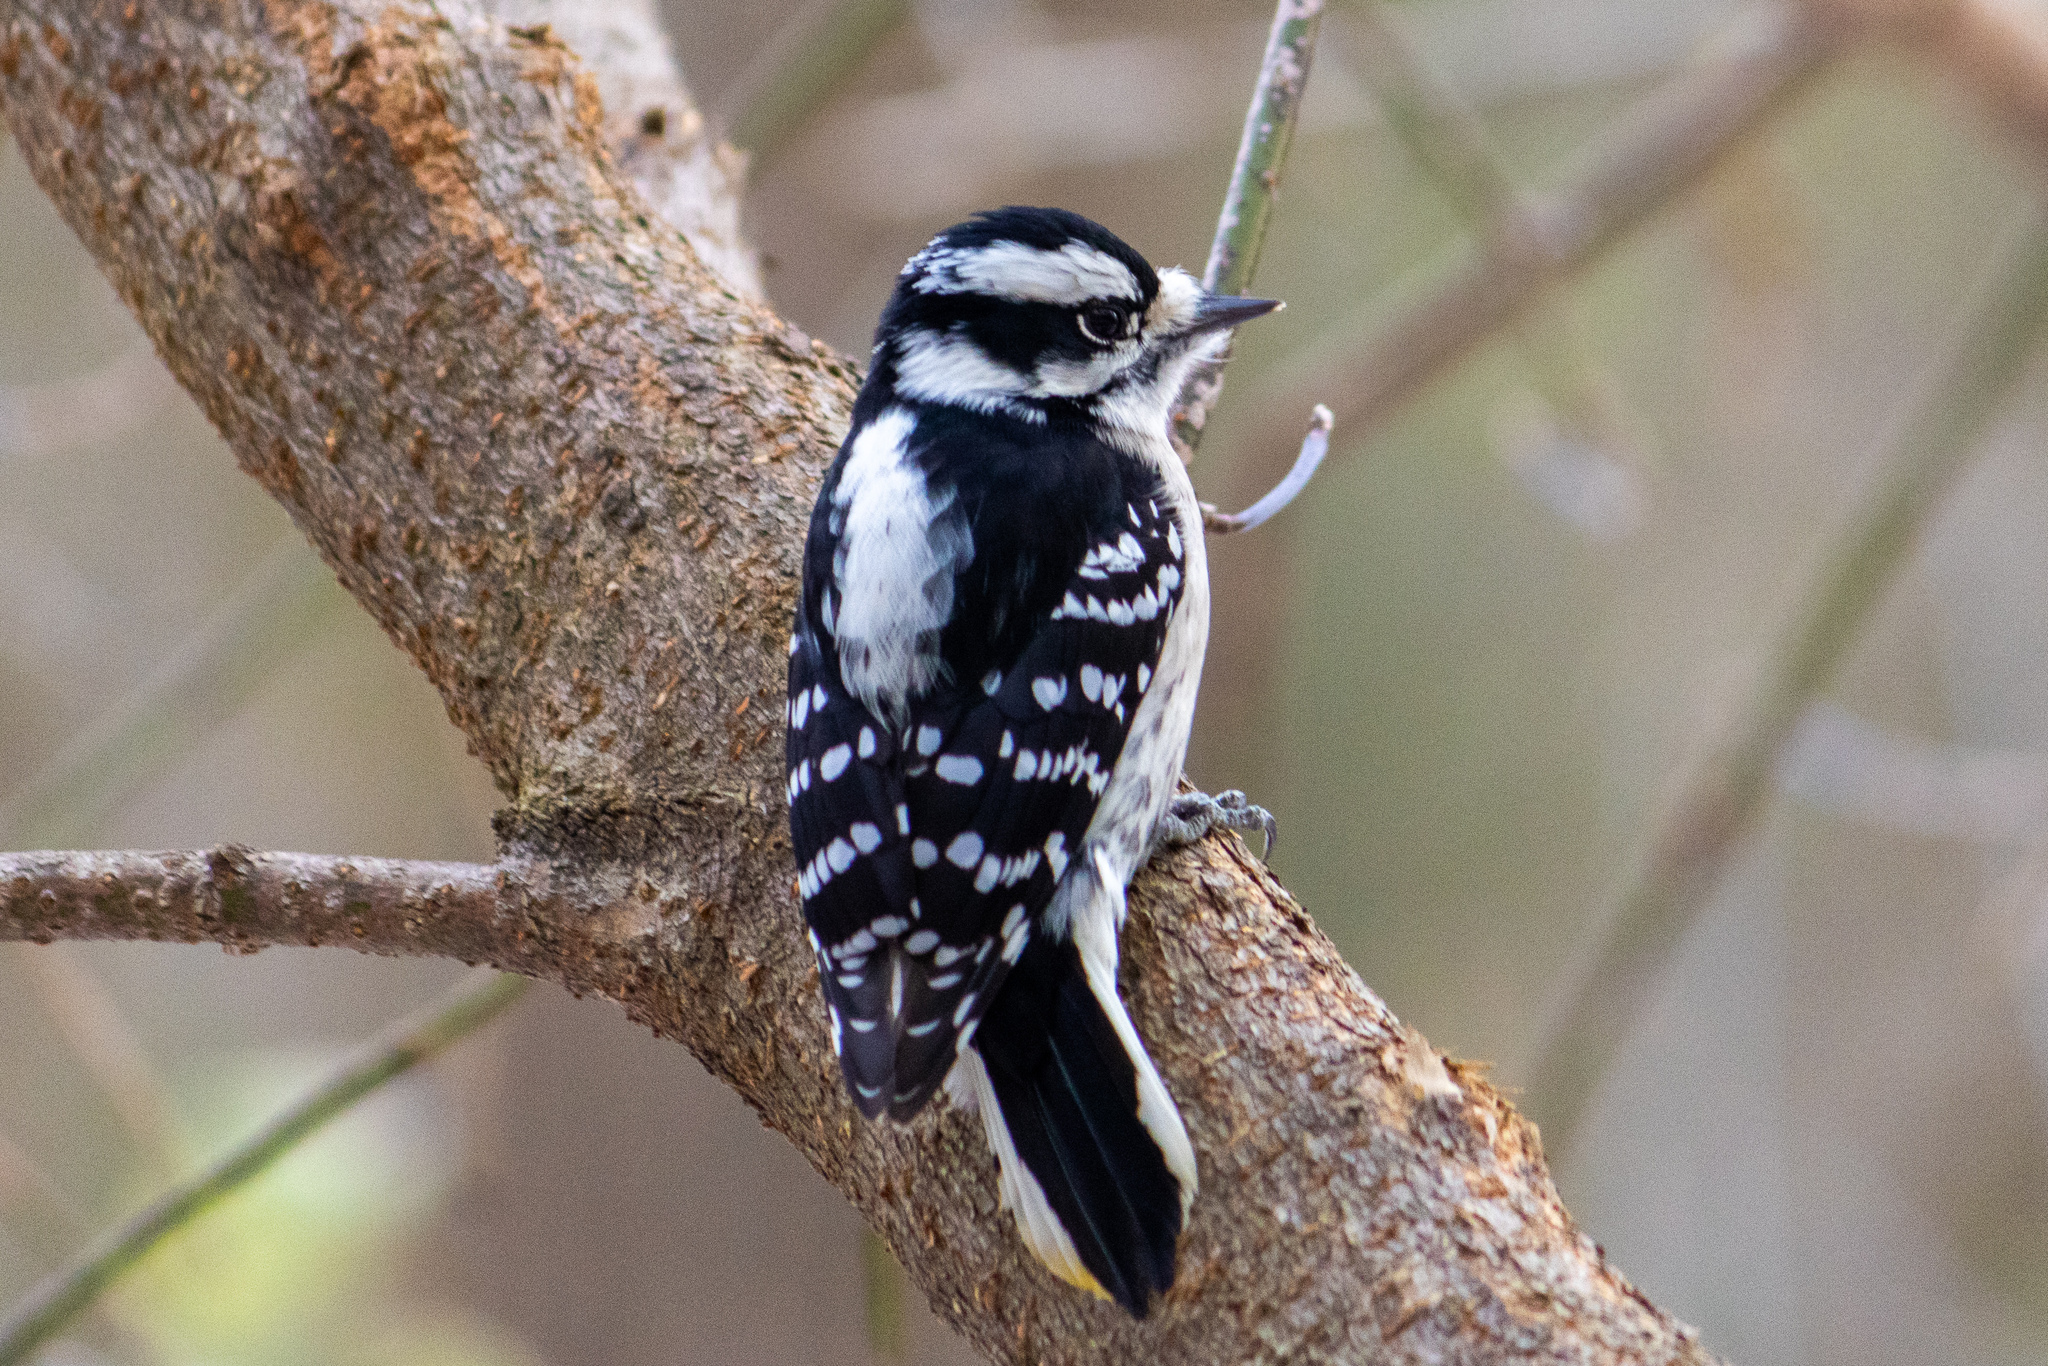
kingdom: Animalia
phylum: Chordata
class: Aves
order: Piciformes
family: Picidae
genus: Dryobates
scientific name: Dryobates pubescens
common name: Downy woodpecker
